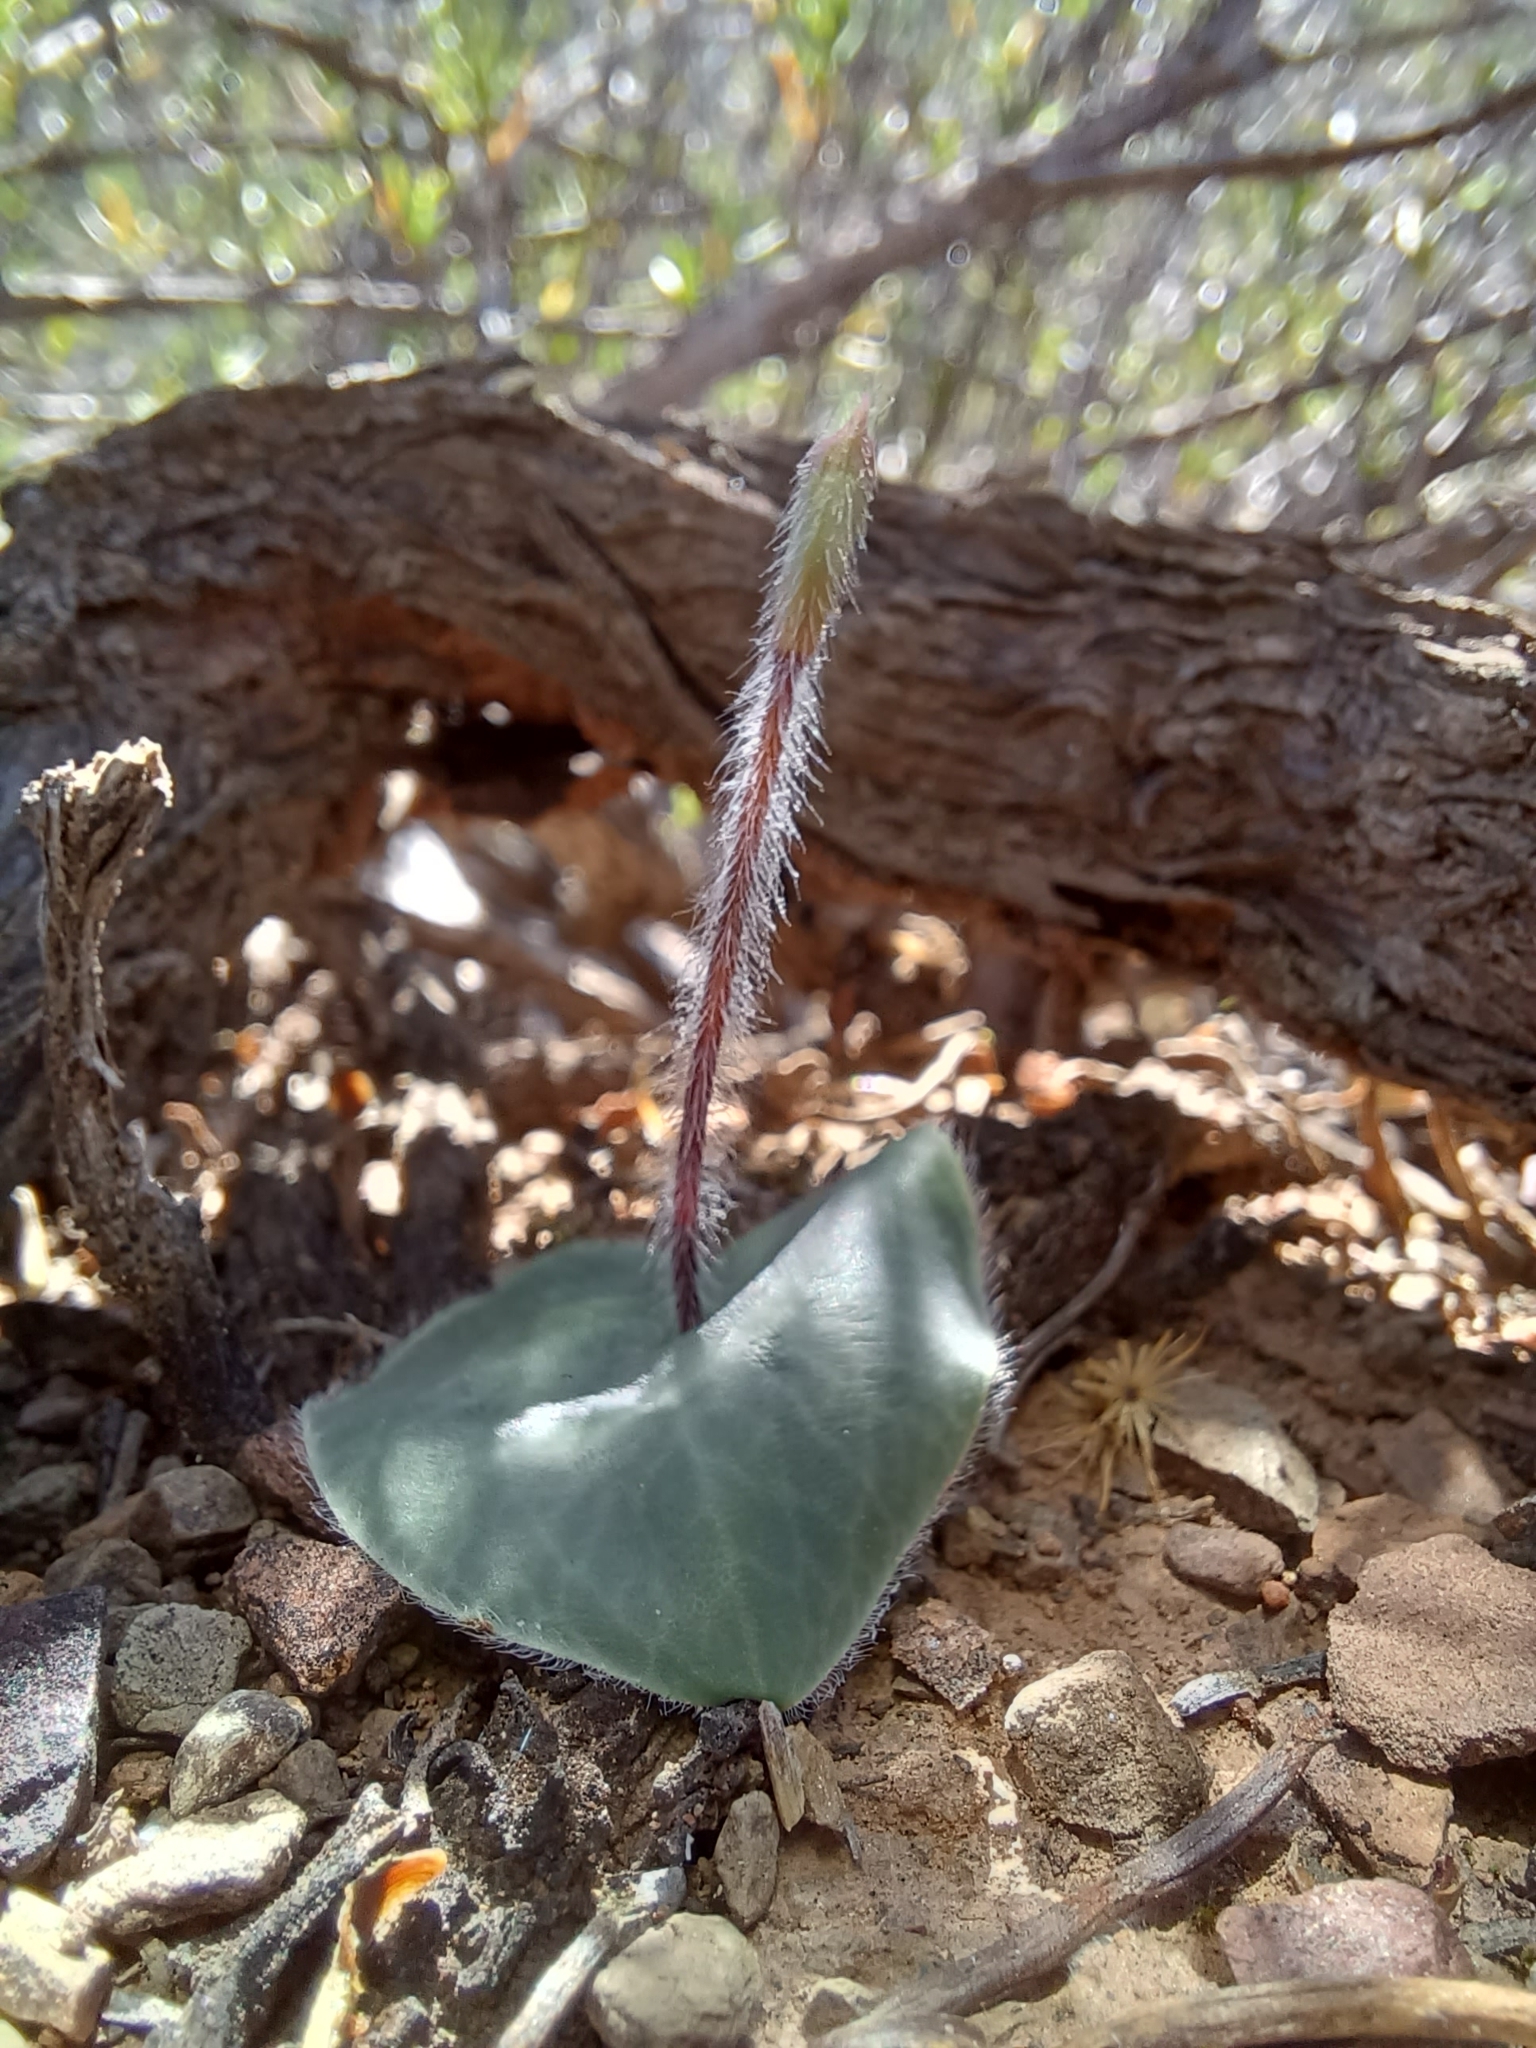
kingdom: Plantae
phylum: Tracheophyta
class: Liliopsida
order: Asparagales
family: Orchidaceae
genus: Holothrix
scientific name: Holothrix aspera
